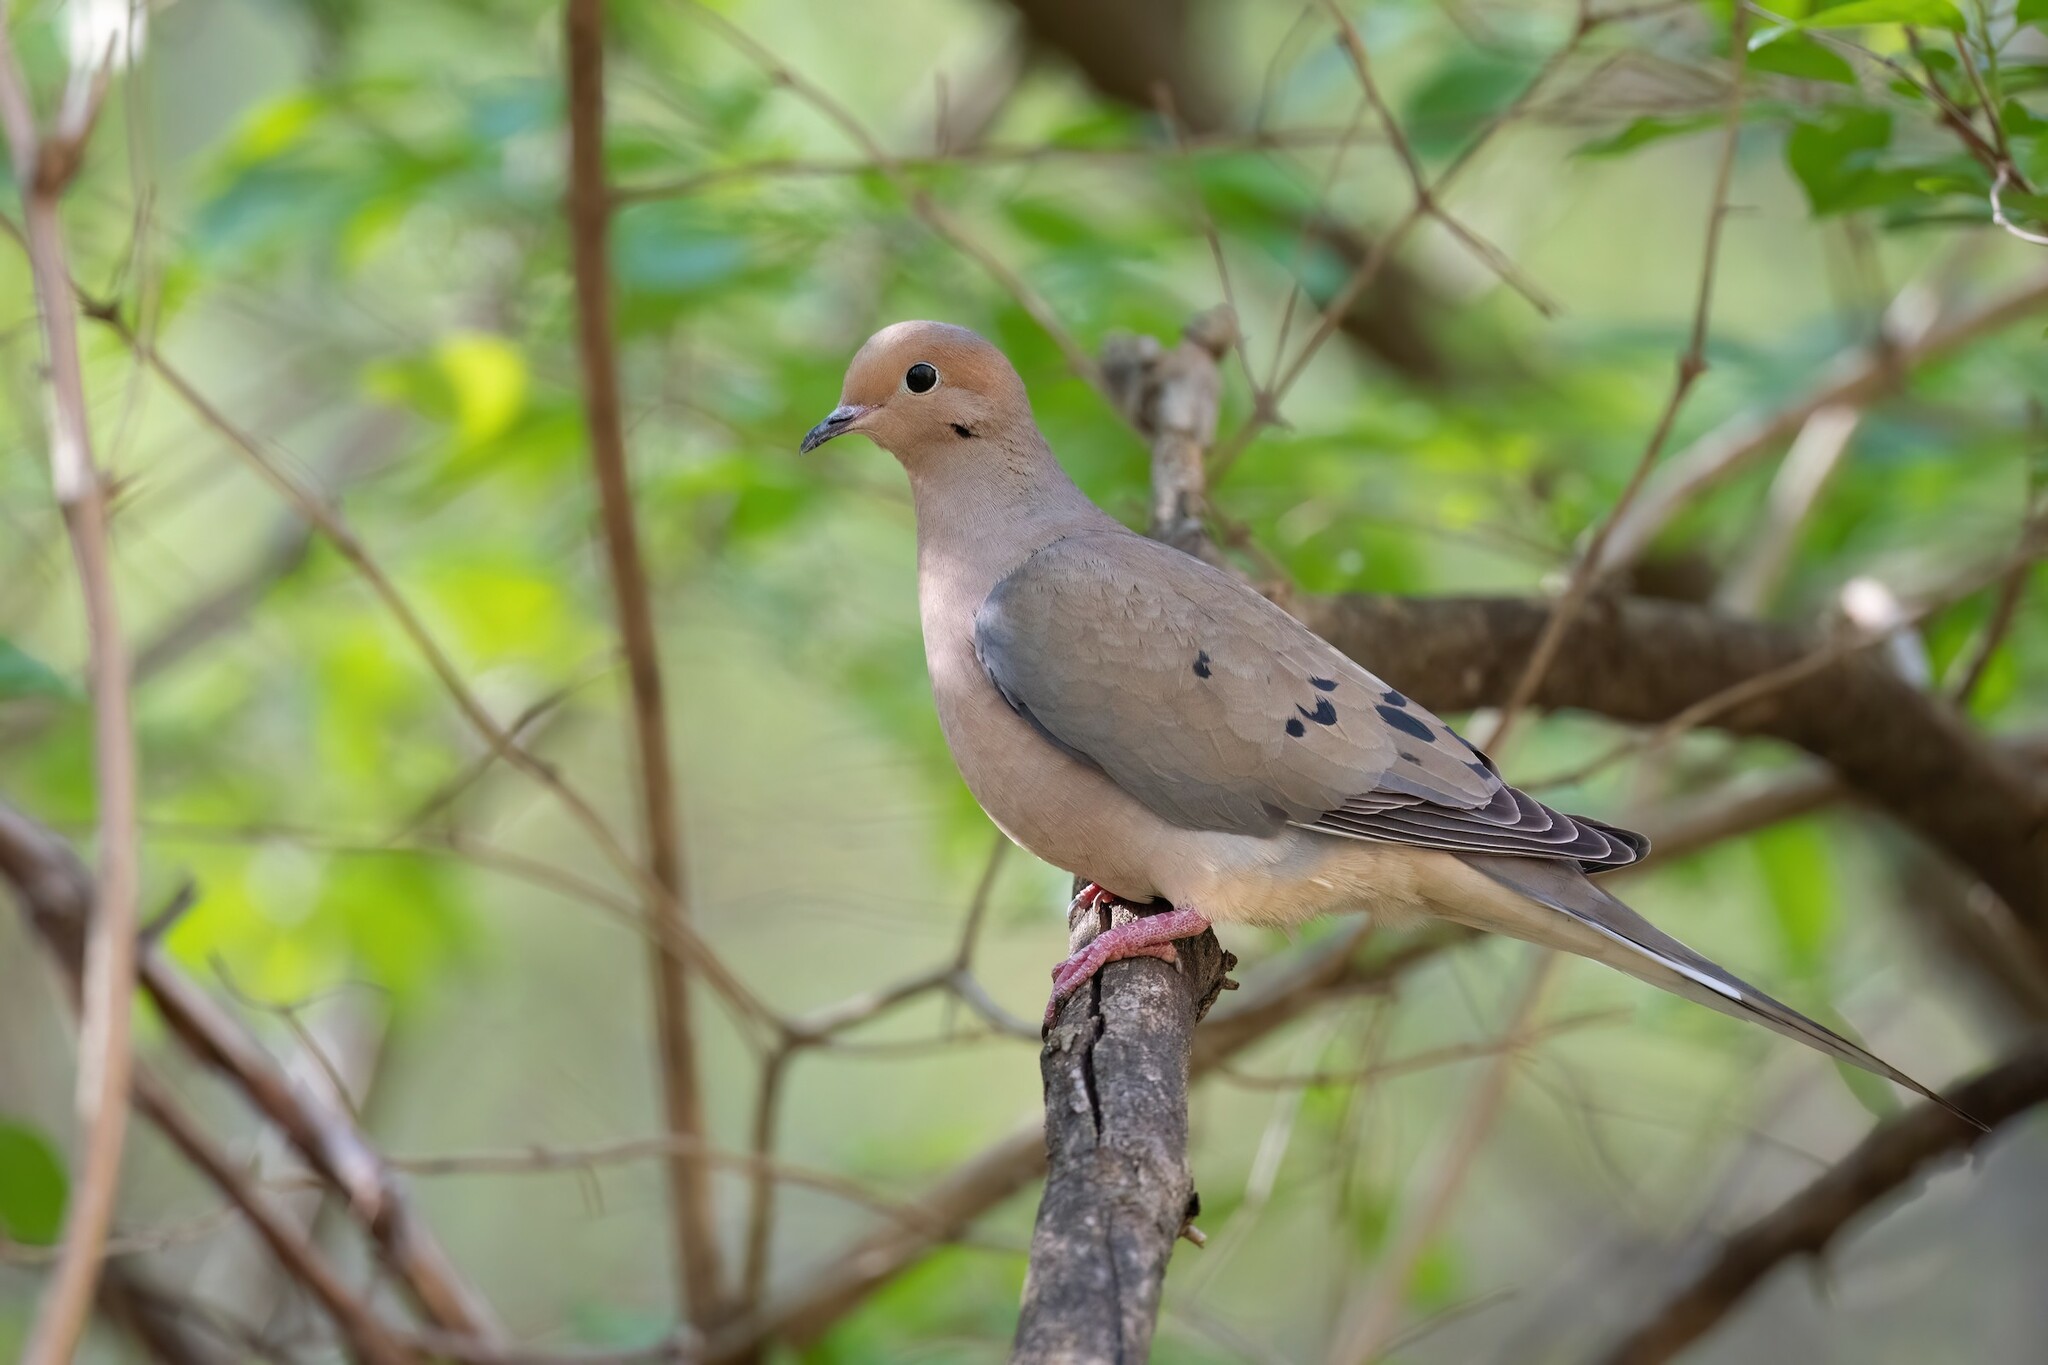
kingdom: Animalia
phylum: Chordata
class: Aves
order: Columbiformes
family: Columbidae
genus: Zenaida
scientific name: Zenaida macroura
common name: Mourning dove
